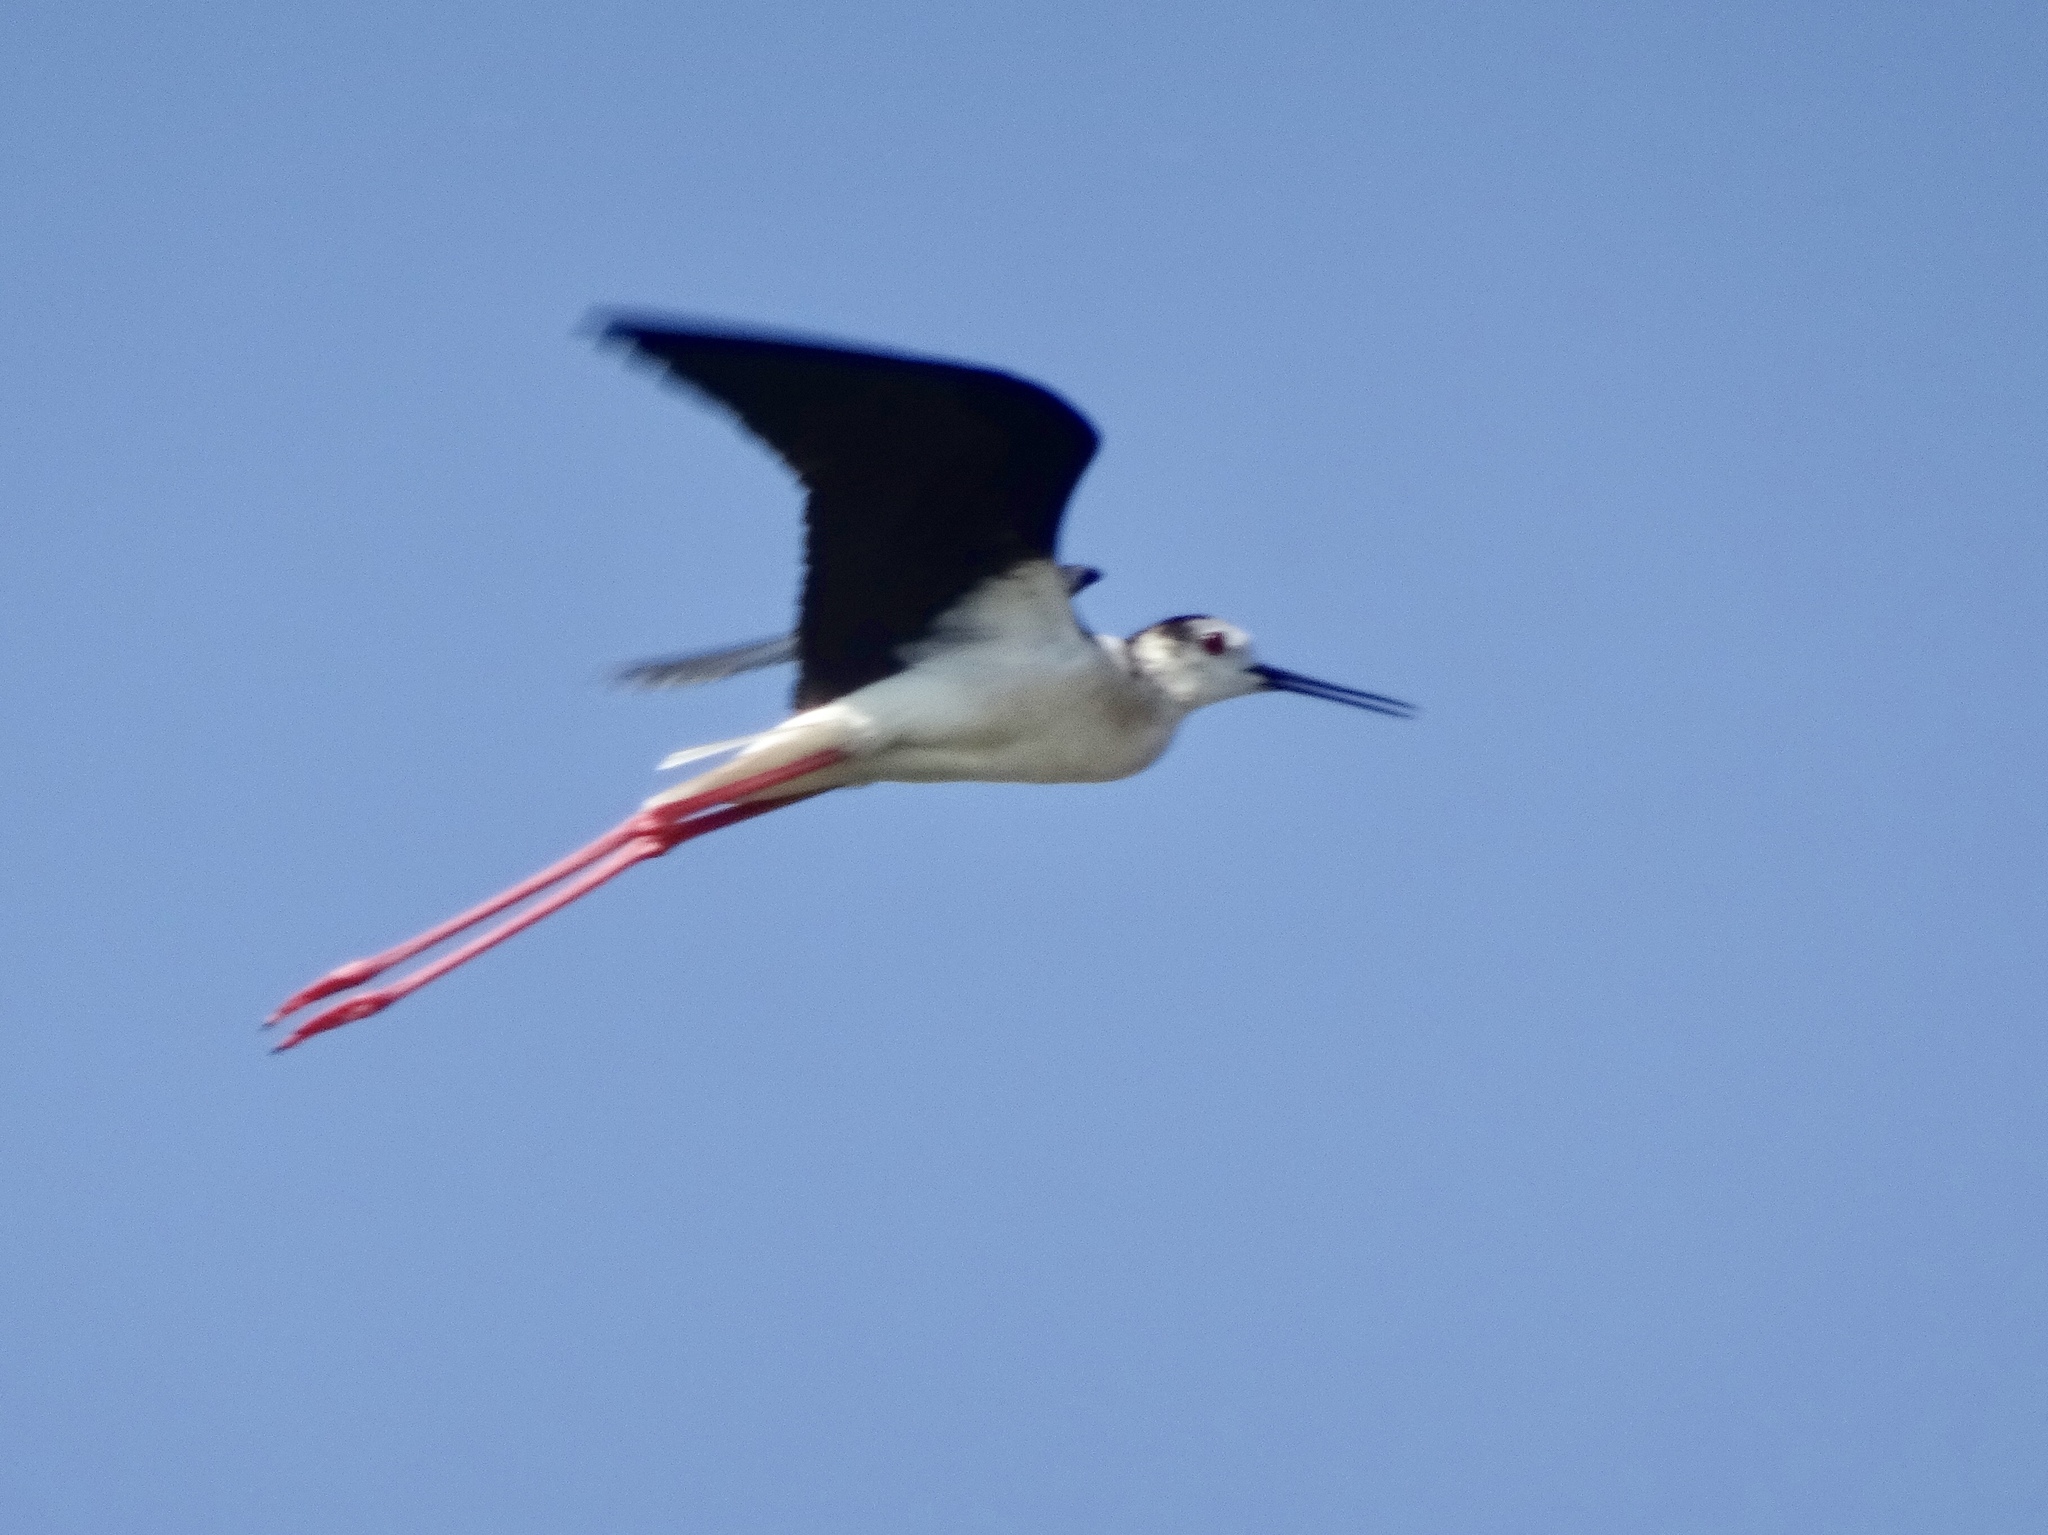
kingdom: Animalia
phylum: Chordata
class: Aves
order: Charadriiformes
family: Recurvirostridae
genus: Himantopus
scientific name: Himantopus himantopus
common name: Black-winged stilt
